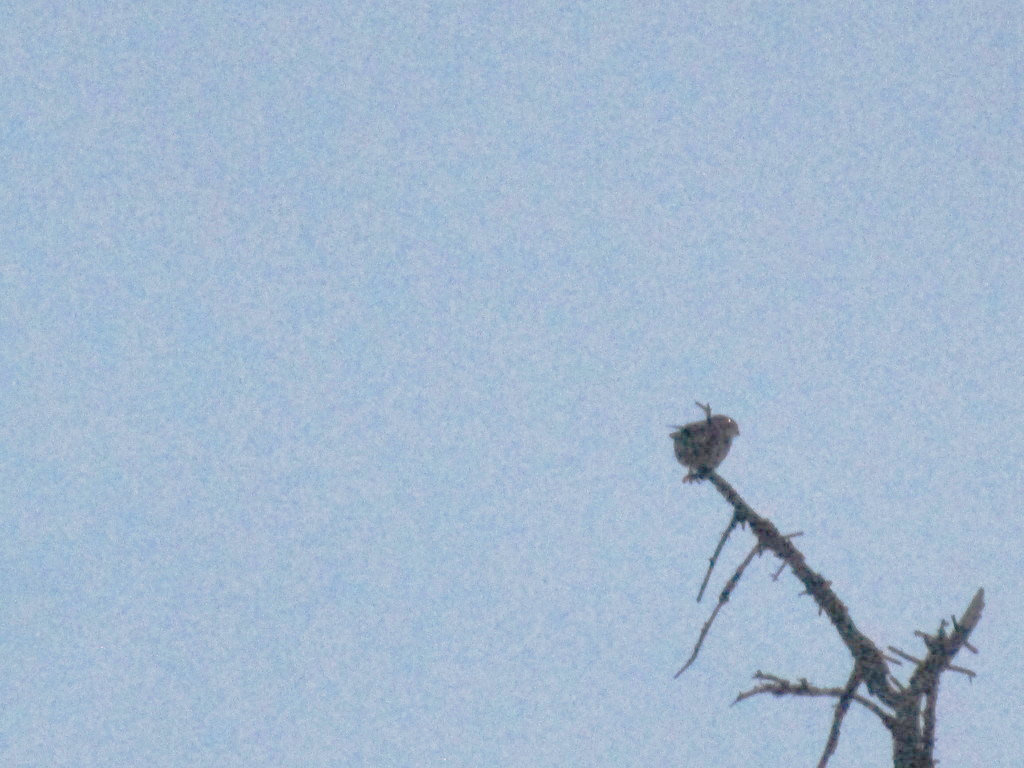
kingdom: Animalia
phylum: Chordata
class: Aves
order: Falconiformes
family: Falconidae
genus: Falco
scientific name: Falco columbarius
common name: Merlin
